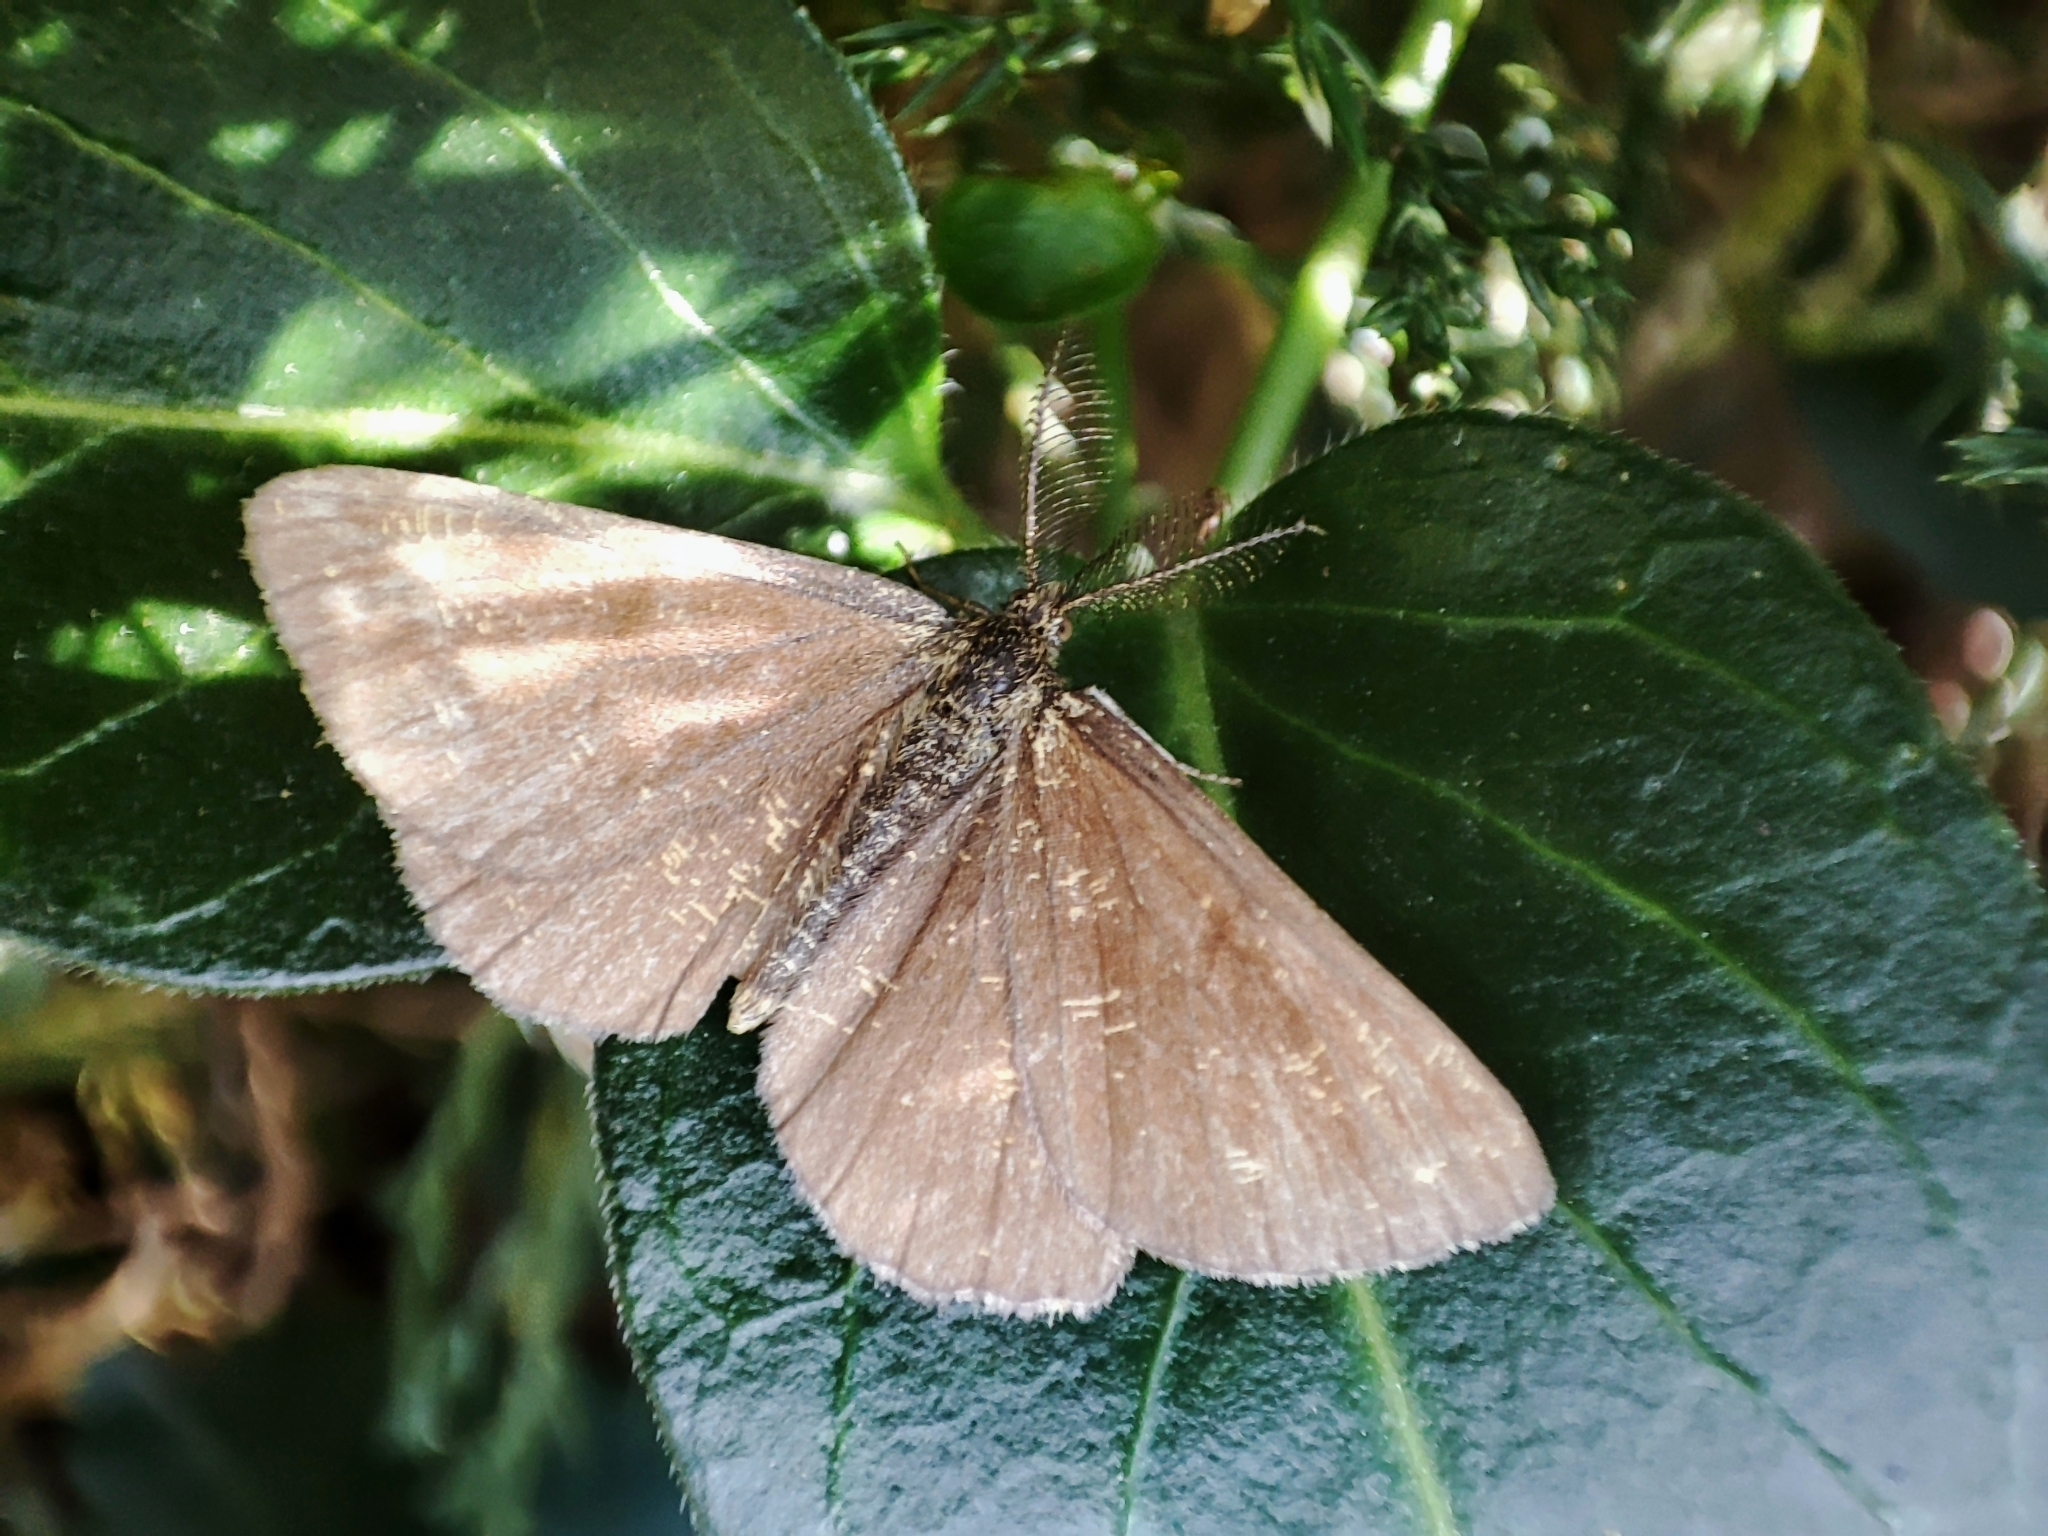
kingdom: Animalia
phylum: Arthropoda
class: Insecta
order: Lepidoptera
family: Geometridae
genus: Ematurga
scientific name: Ematurga atomaria
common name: Common heath
